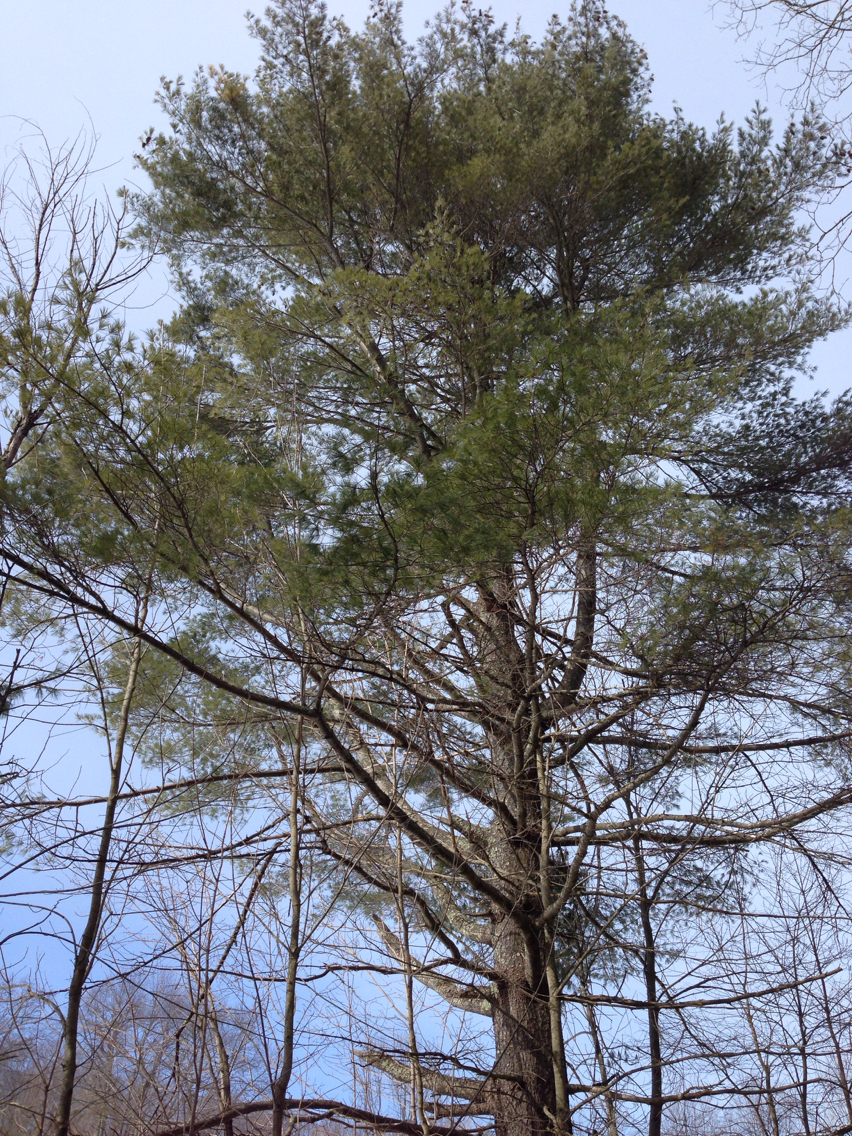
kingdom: Plantae
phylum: Tracheophyta
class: Pinopsida
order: Pinales
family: Pinaceae
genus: Pinus
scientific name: Pinus strobus
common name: Weymouth pine
